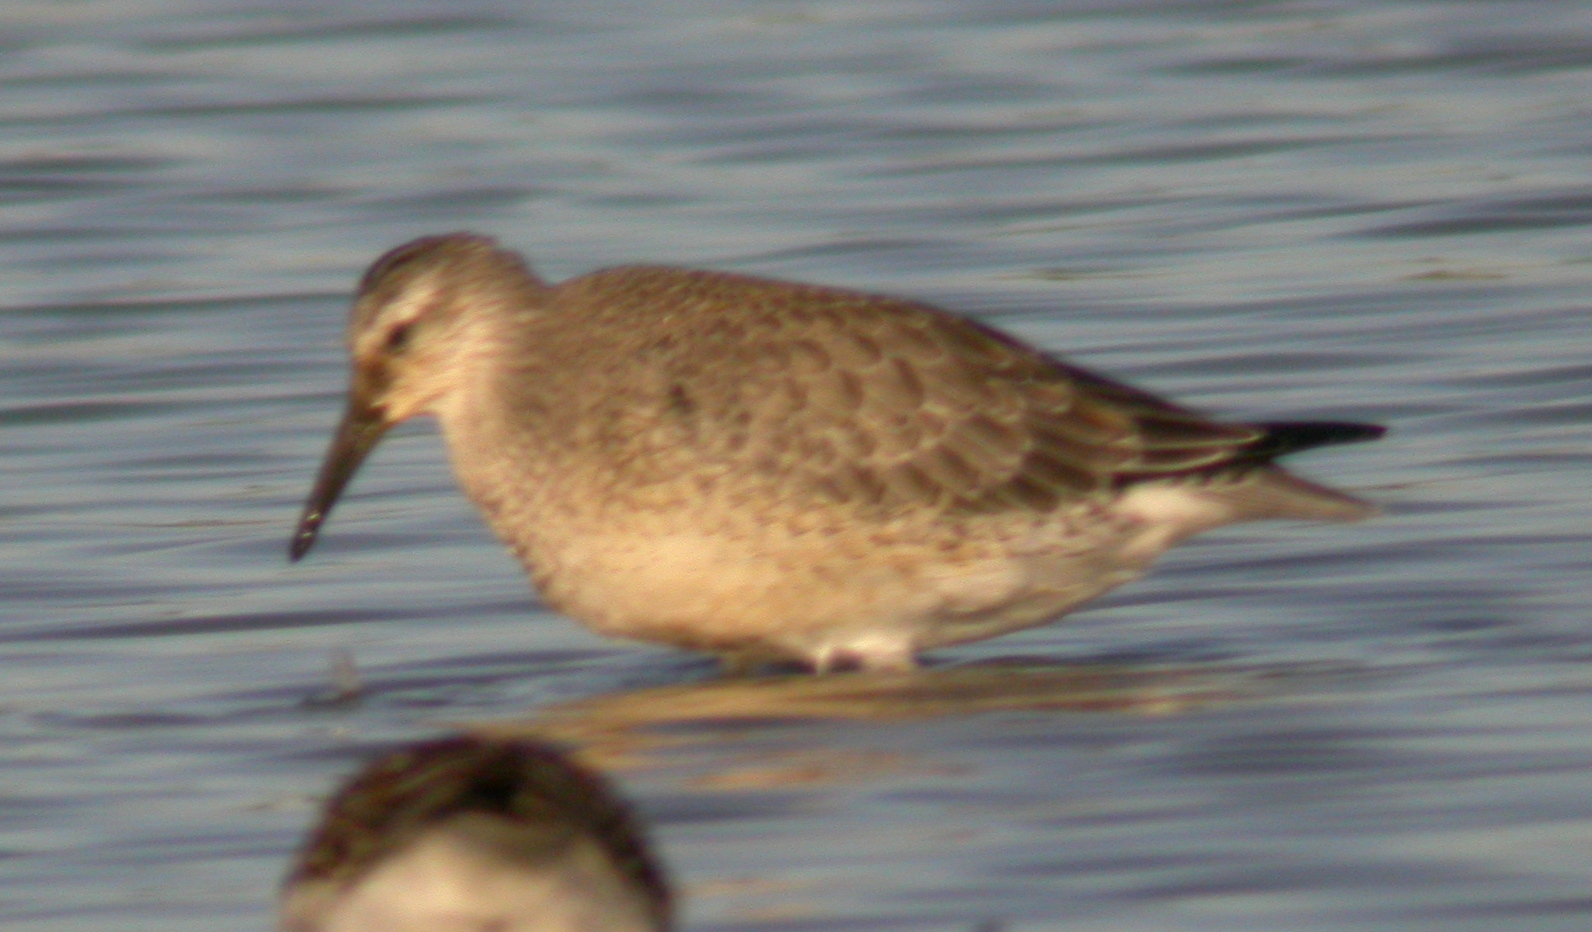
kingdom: Animalia
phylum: Chordata
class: Aves
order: Charadriiformes
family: Scolopacidae
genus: Calidris
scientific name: Calidris canutus
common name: Red knot
